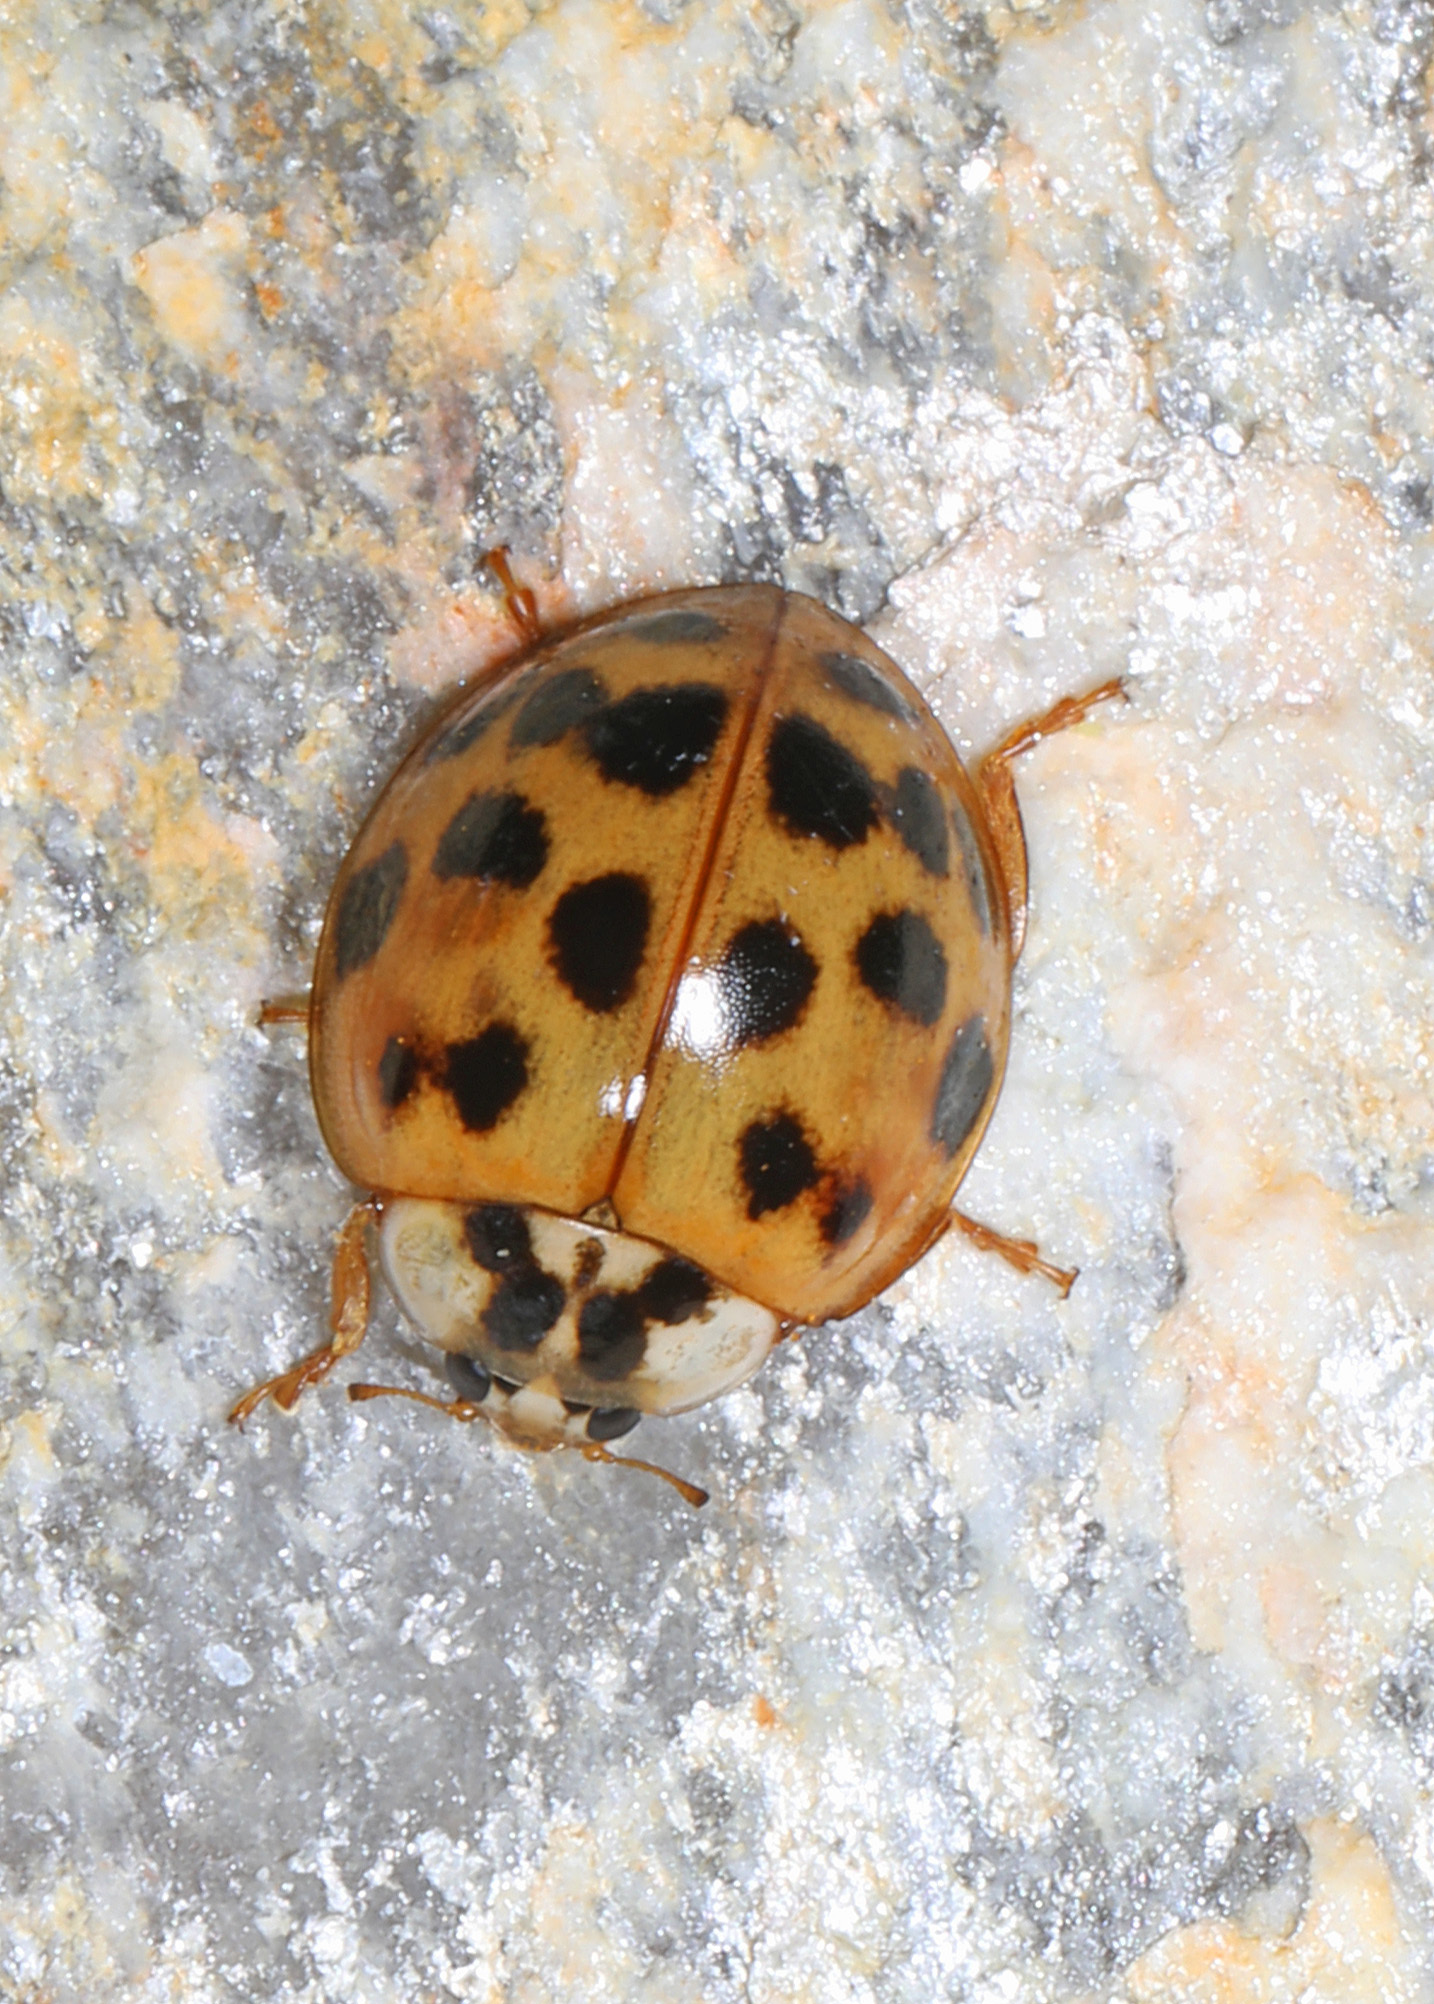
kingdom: Animalia
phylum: Arthropoda
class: Insecta
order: Coleoptera
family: Coccinellidae
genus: Harmonia
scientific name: Harmonia axyridis
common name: Harlequin ladybird
